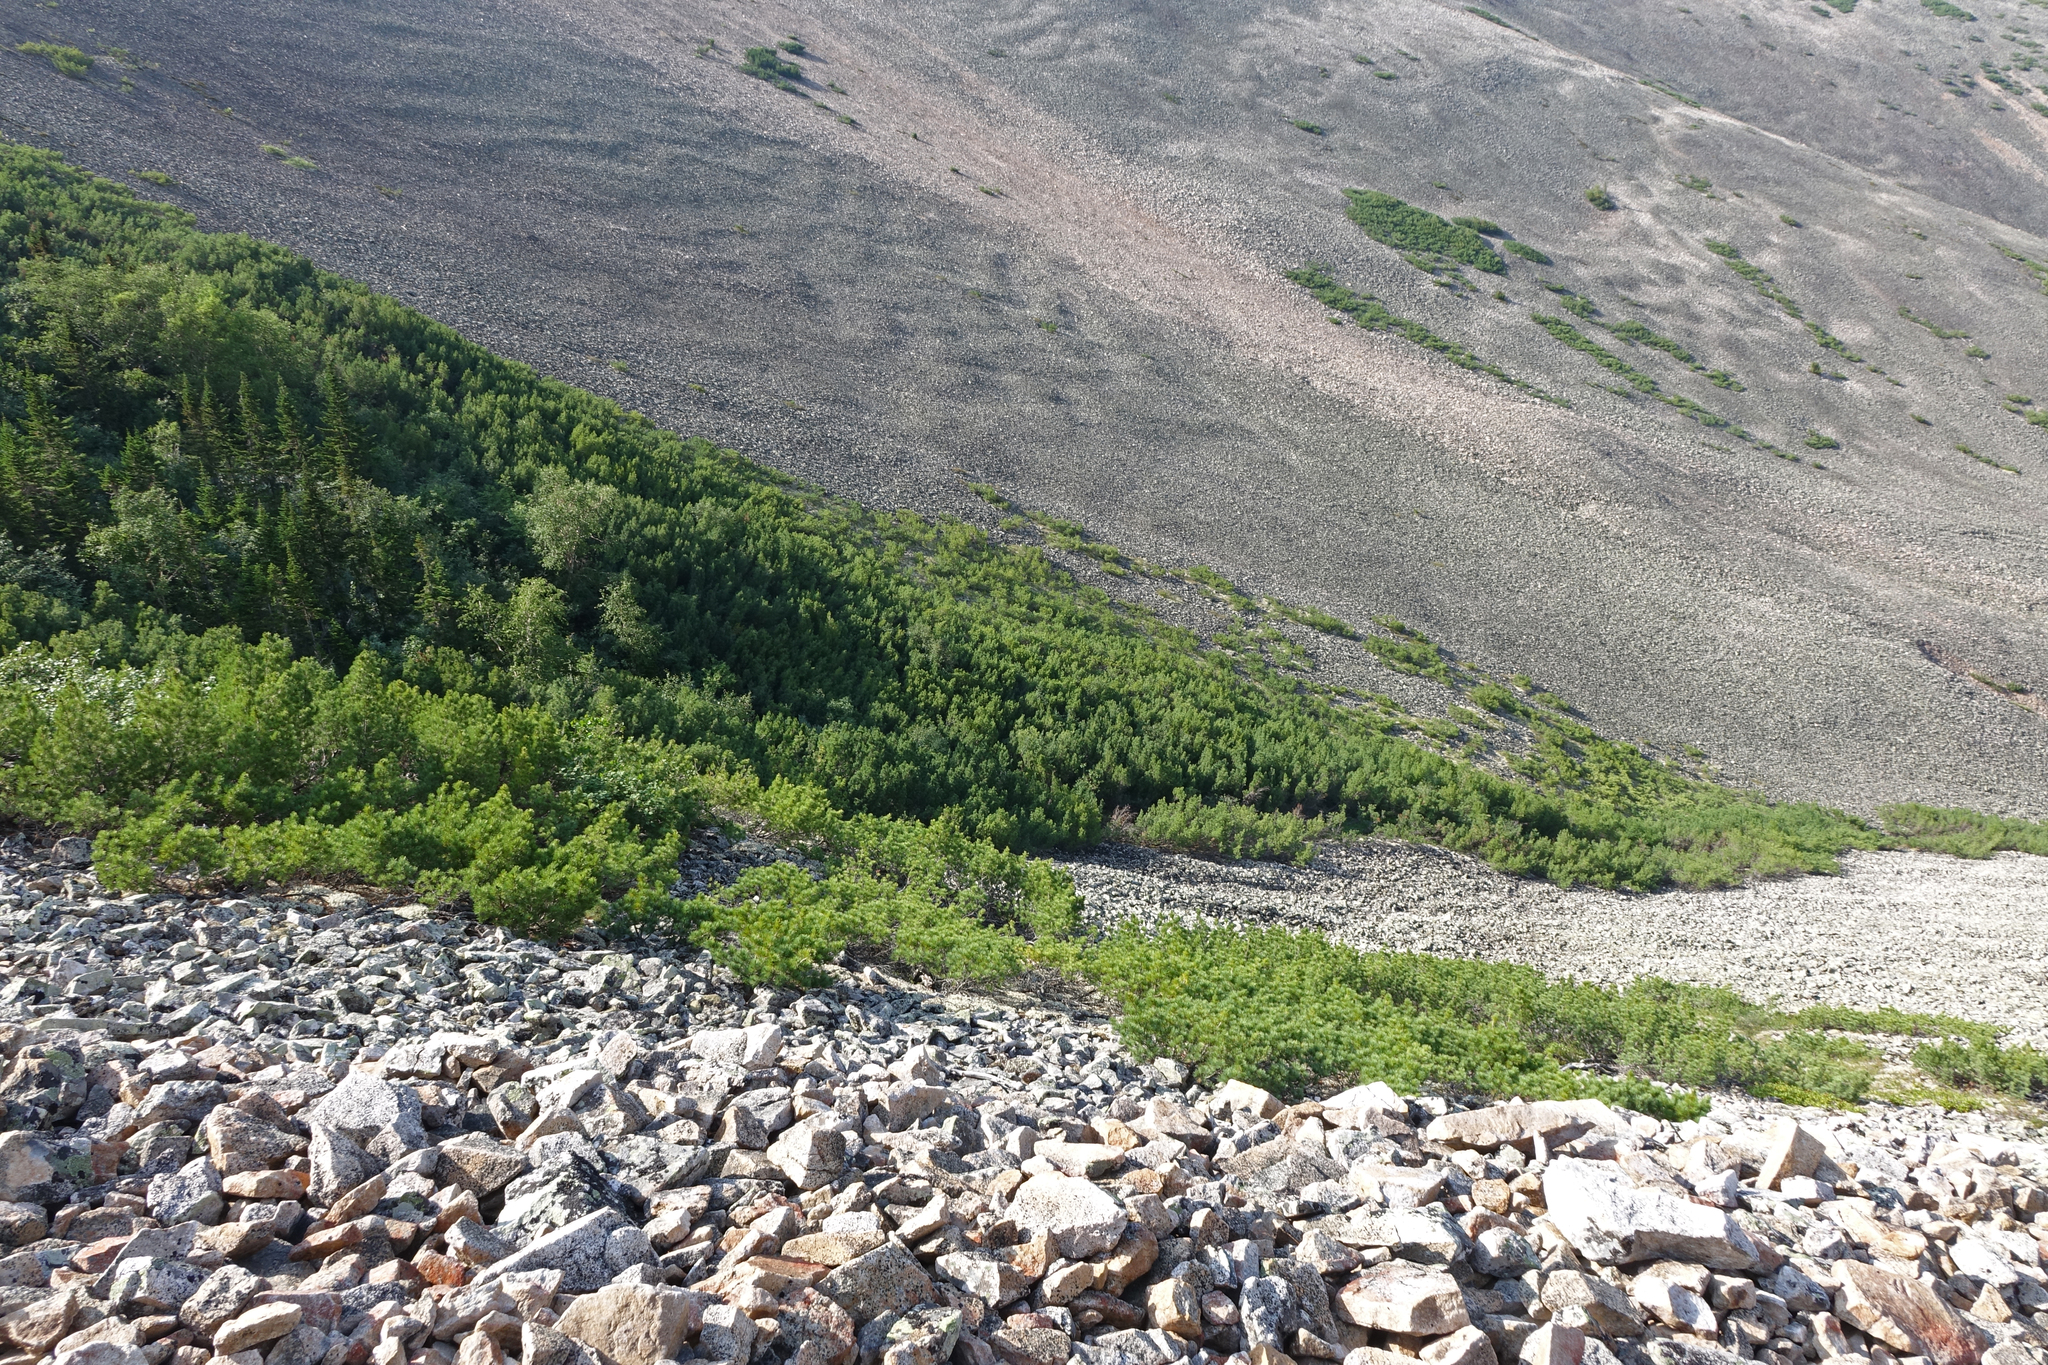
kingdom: Plantae
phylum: Tracheophyta
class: Pinopsida
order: Pinales
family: Pinaceae
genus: Pinus
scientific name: Pinus pumila
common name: Dwarf siberian pine
